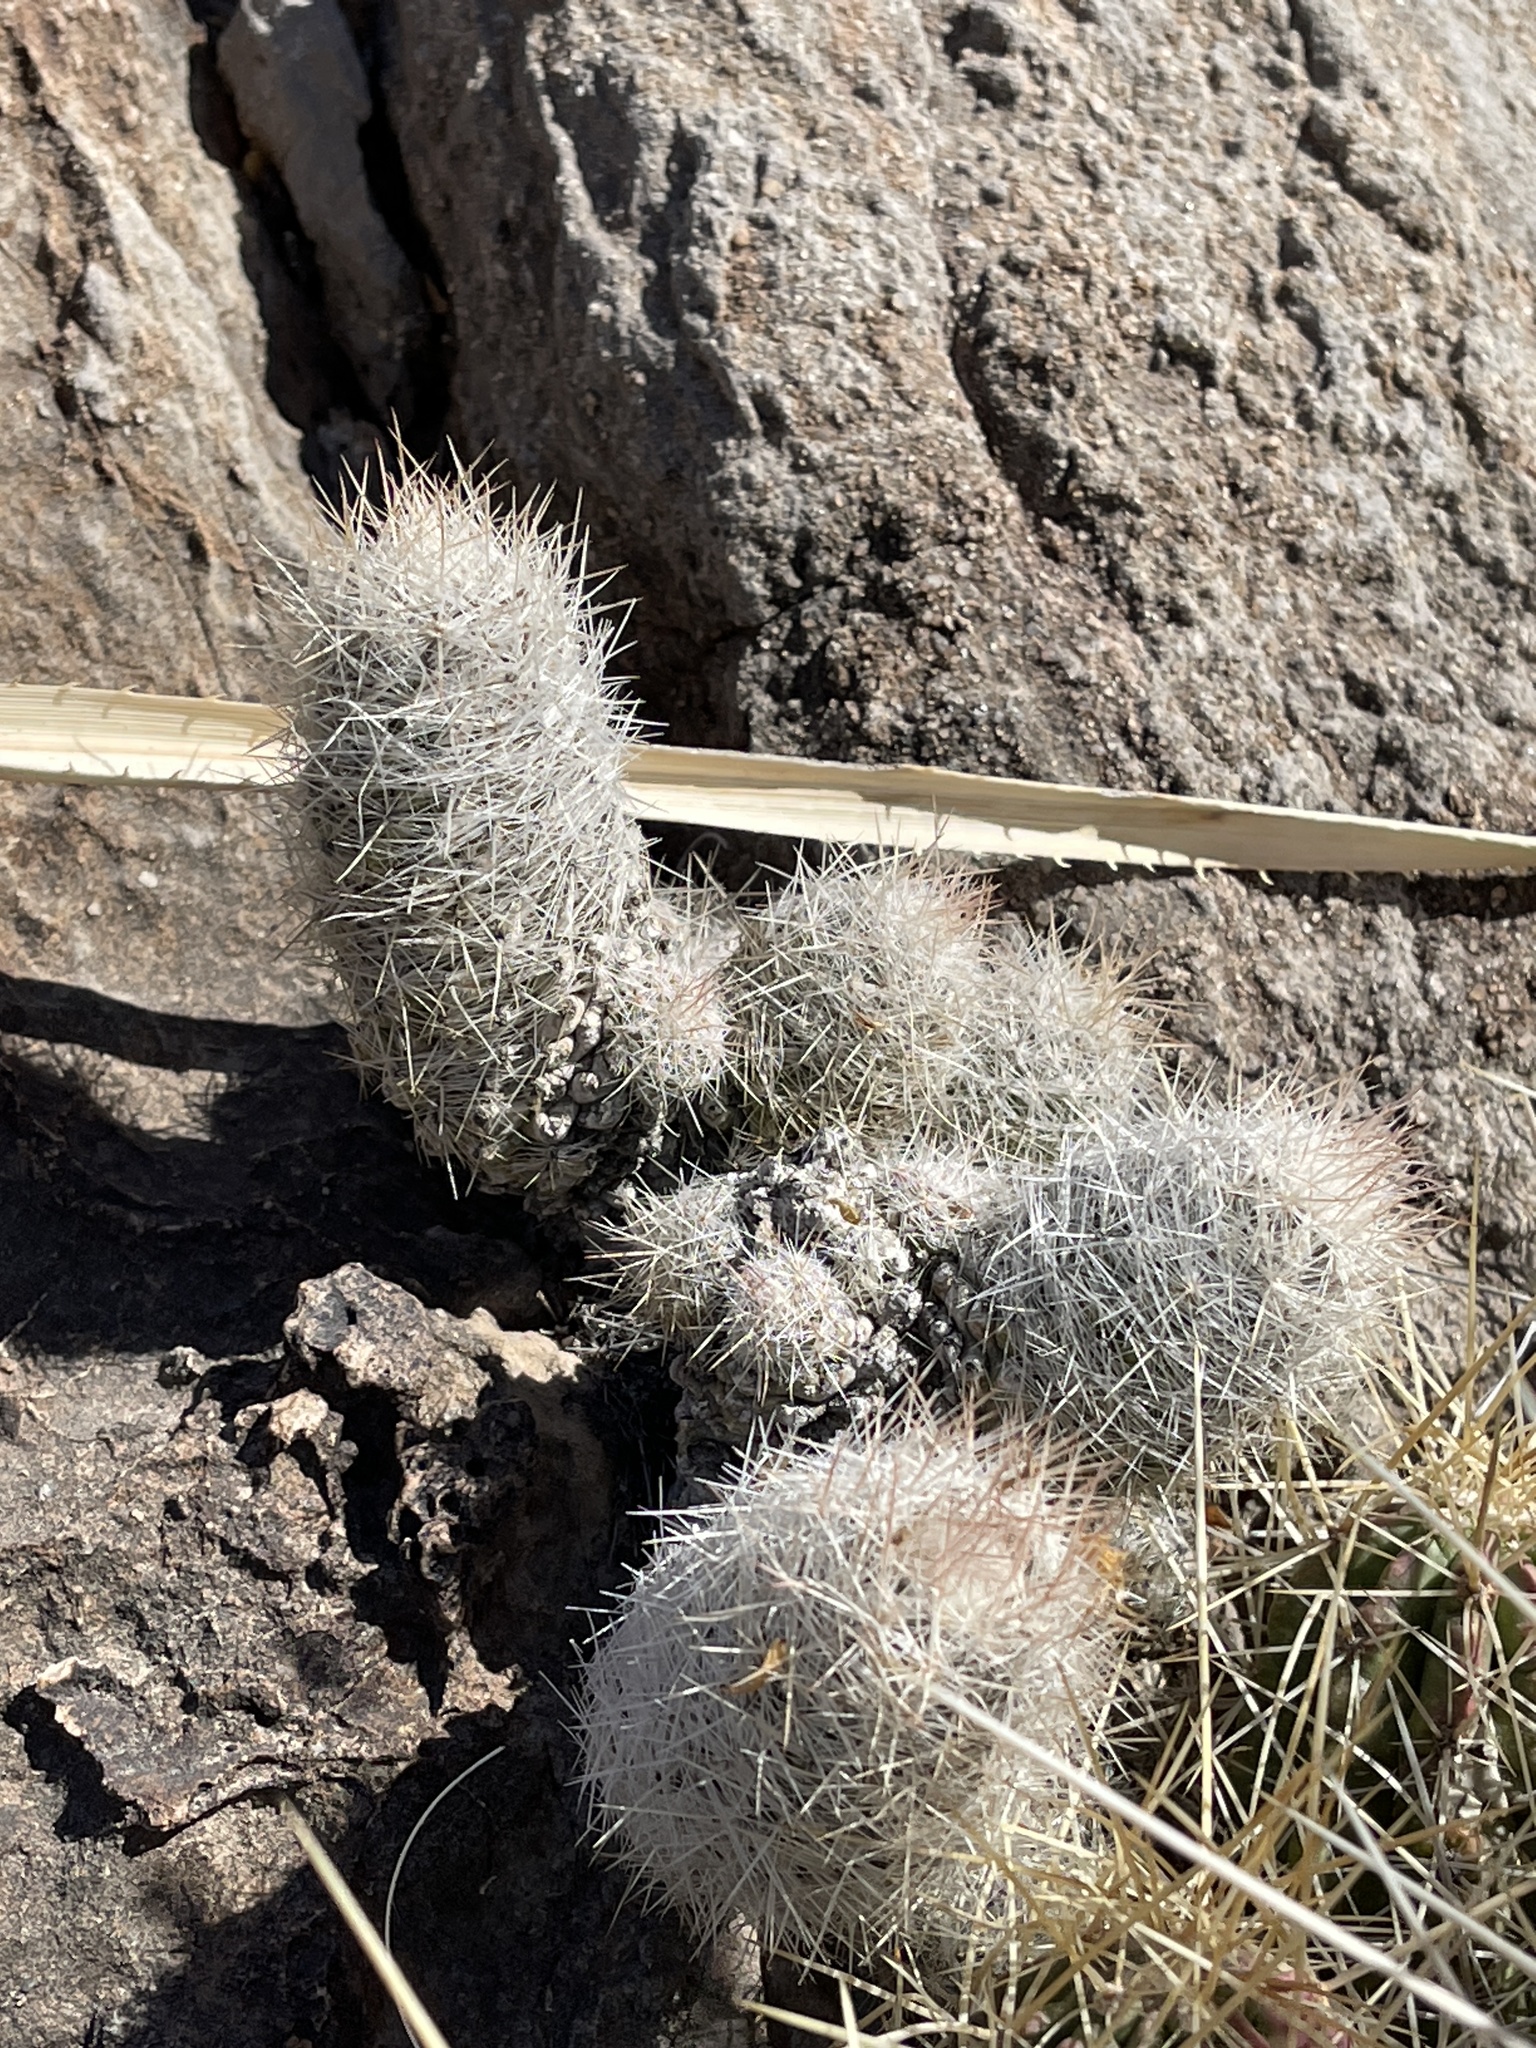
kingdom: Plantae
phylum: Tracheophyta
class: Magnoliopsida
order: Caryophyllales
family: Cactaceae
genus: Pelecyphora
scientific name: Pelecyphora tuberculosa
